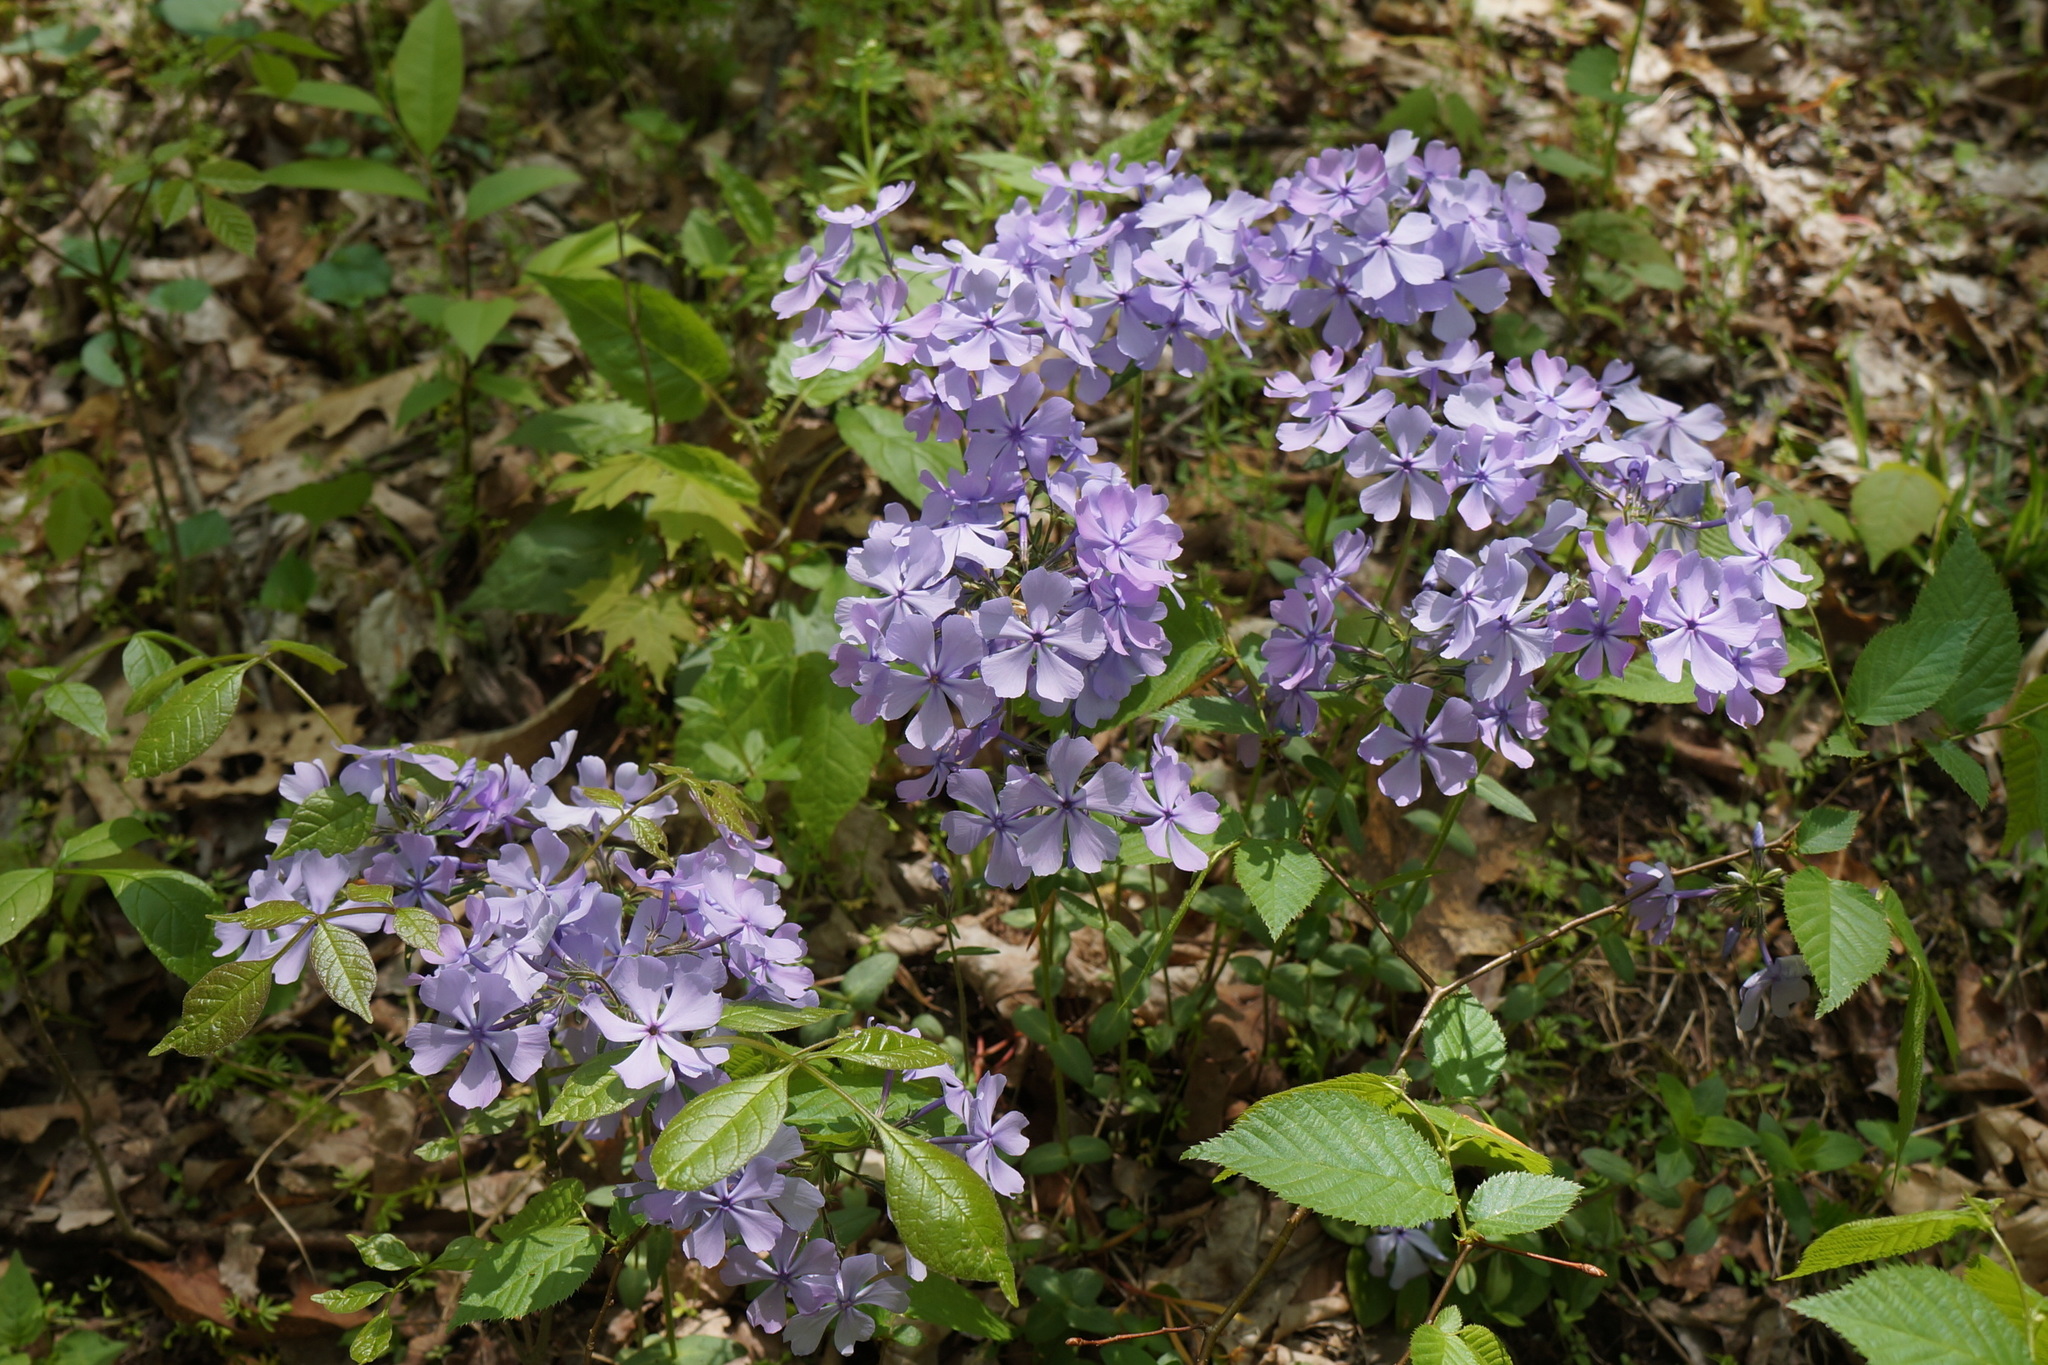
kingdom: Plantae
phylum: Tracheophyta
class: Magnoliopsida
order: Ericales
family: Polemoniaceae
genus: Phlox
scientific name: Phlox divaricata
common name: Blue phlox
